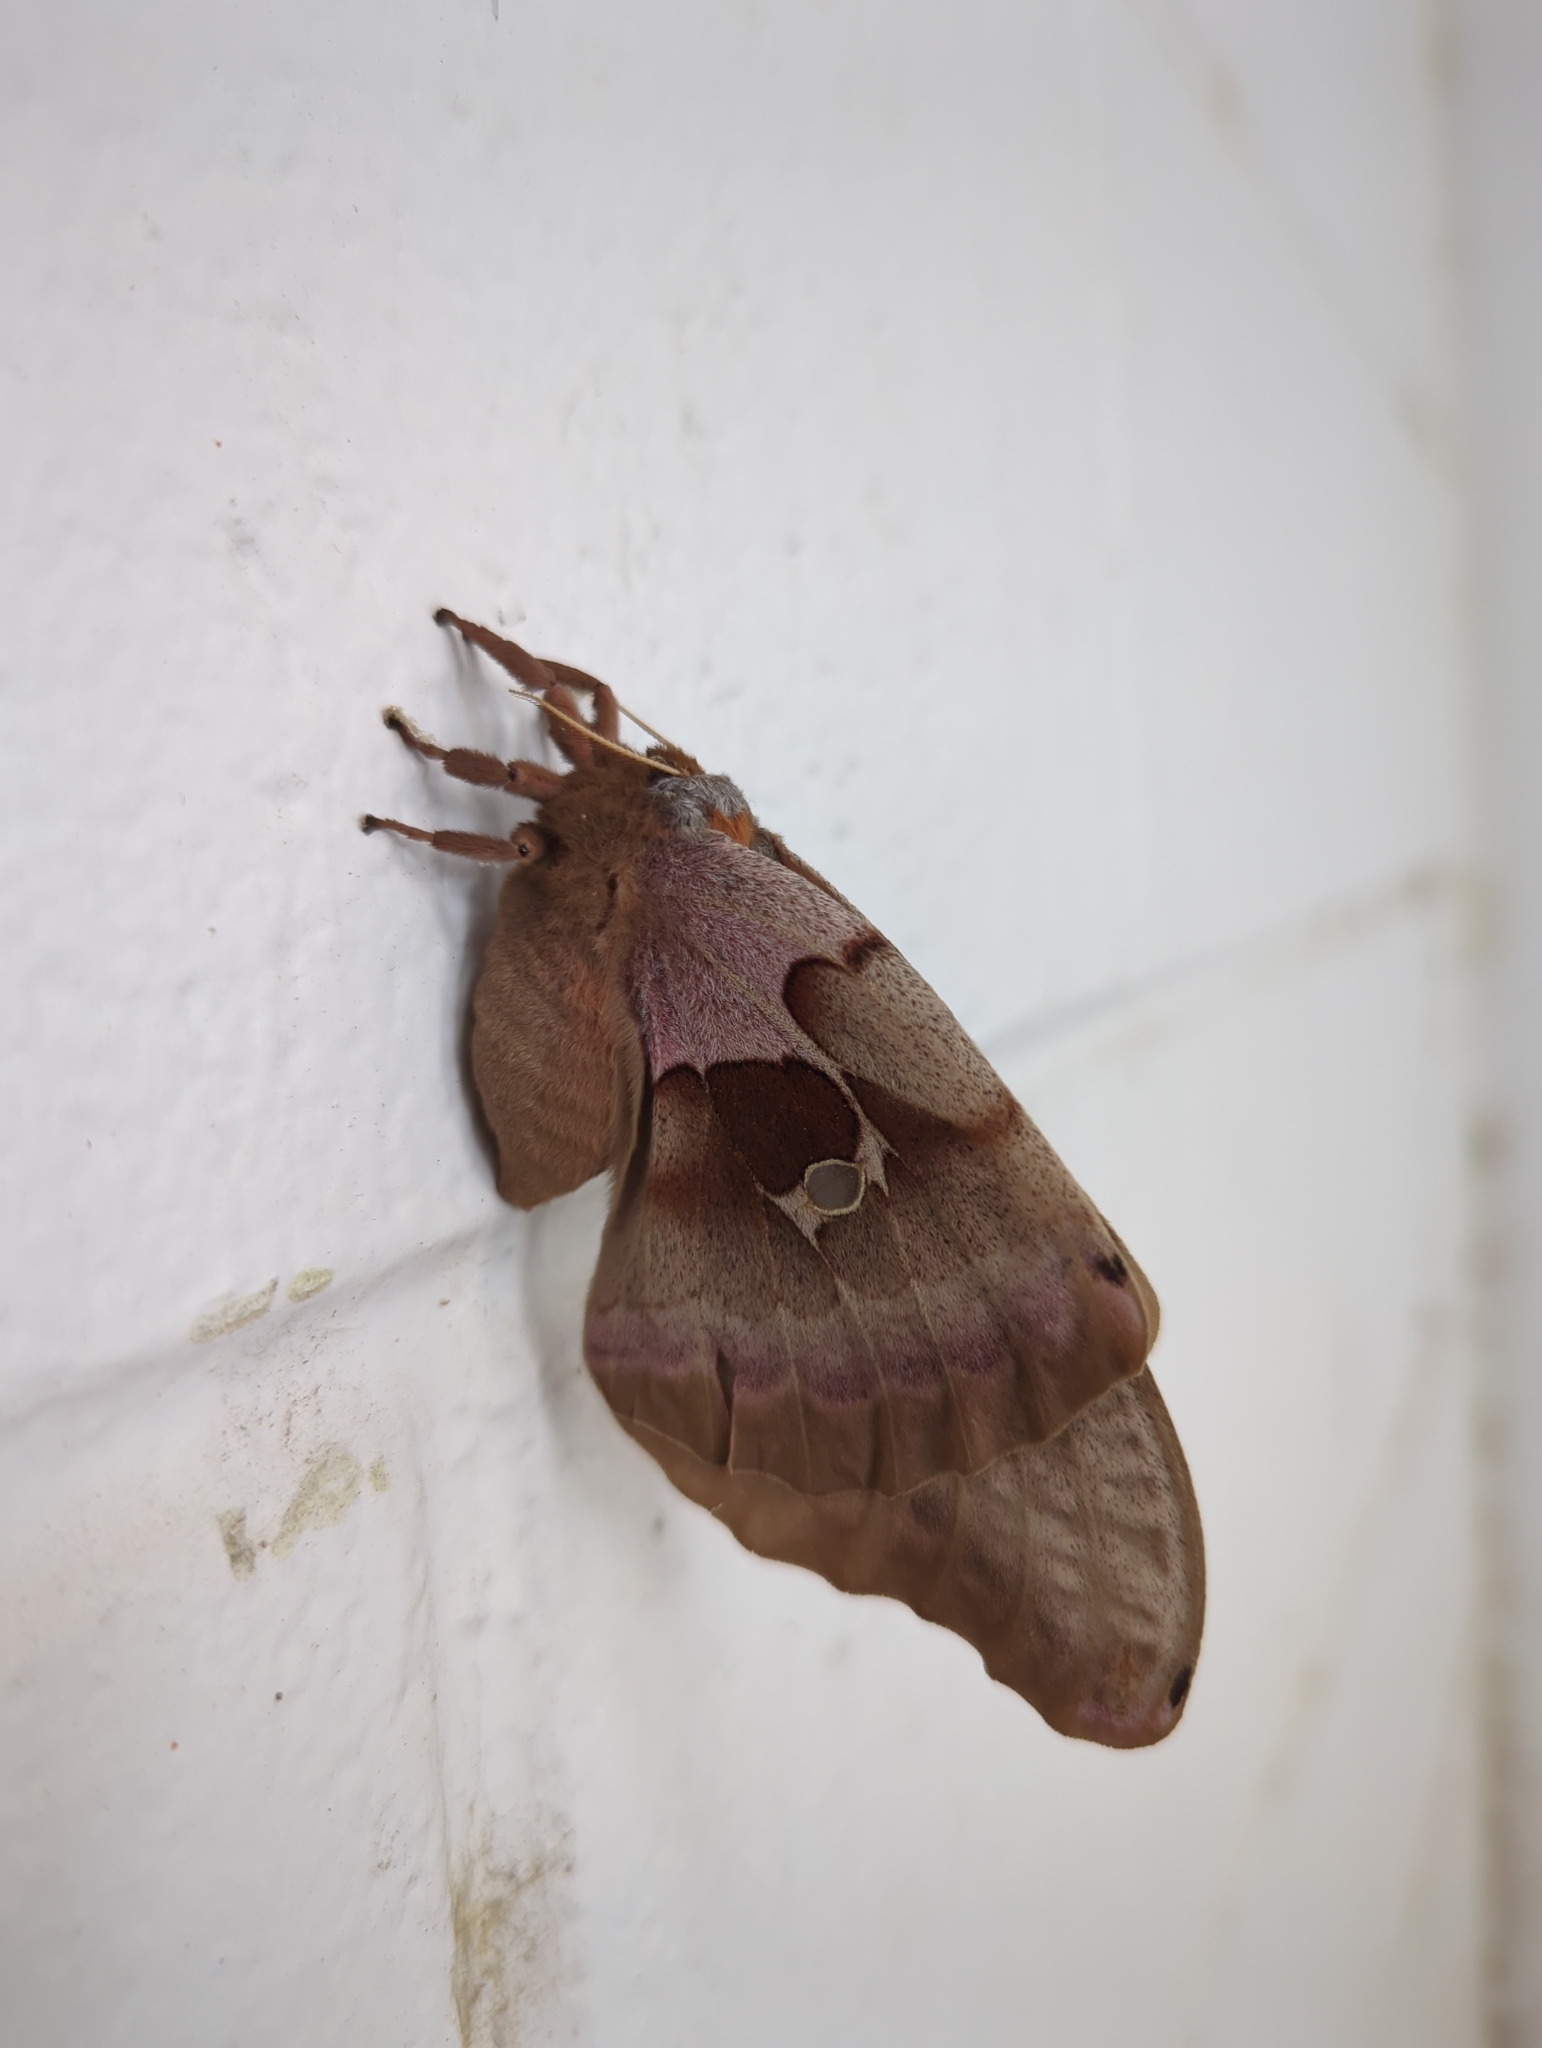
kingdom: Animalia
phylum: Arthropoda
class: Insecta
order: Lepidoptera
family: Saturniidae
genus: Antheraea
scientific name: Antheraea polyphemus
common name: Polyphemus moth
